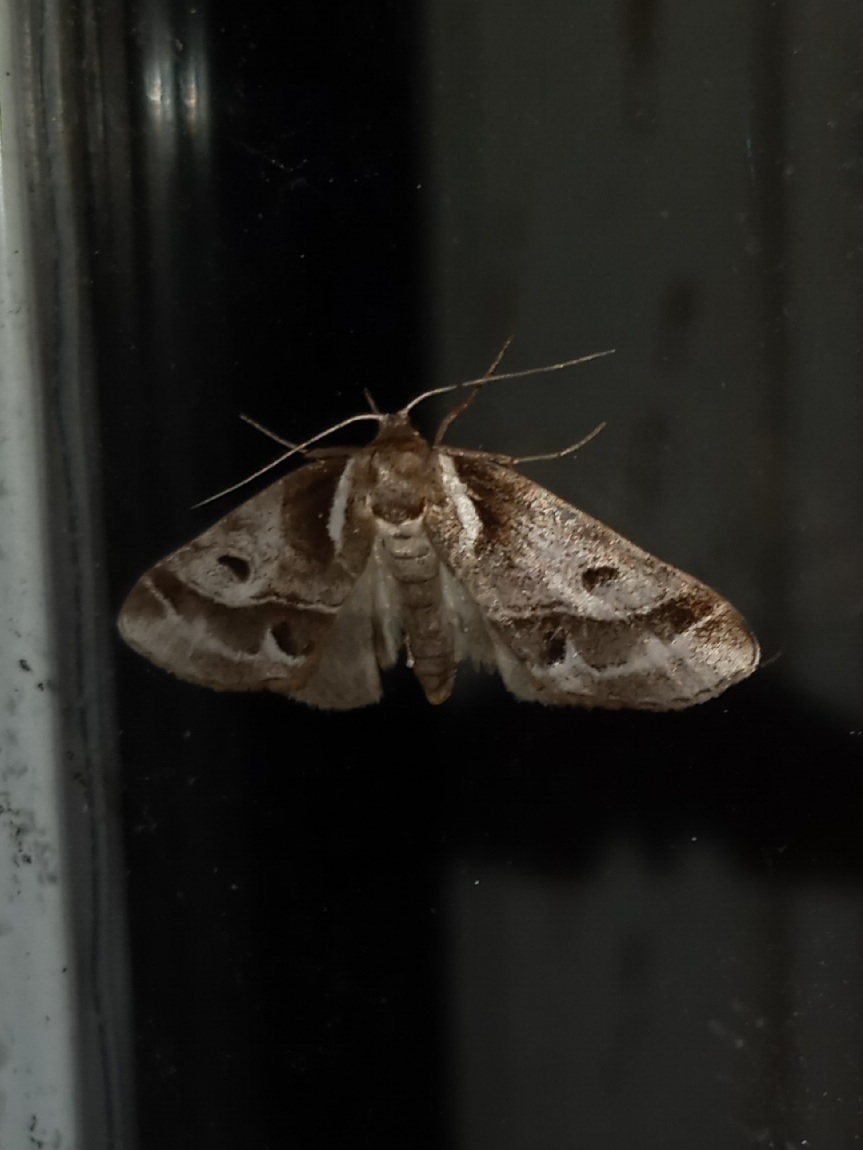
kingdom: Animalia
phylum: Arthropoda
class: Insecta
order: Lepidoptera
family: Nolidae
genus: Baileya
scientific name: Baileya doubledayi
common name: Doubleday's baileya moth
